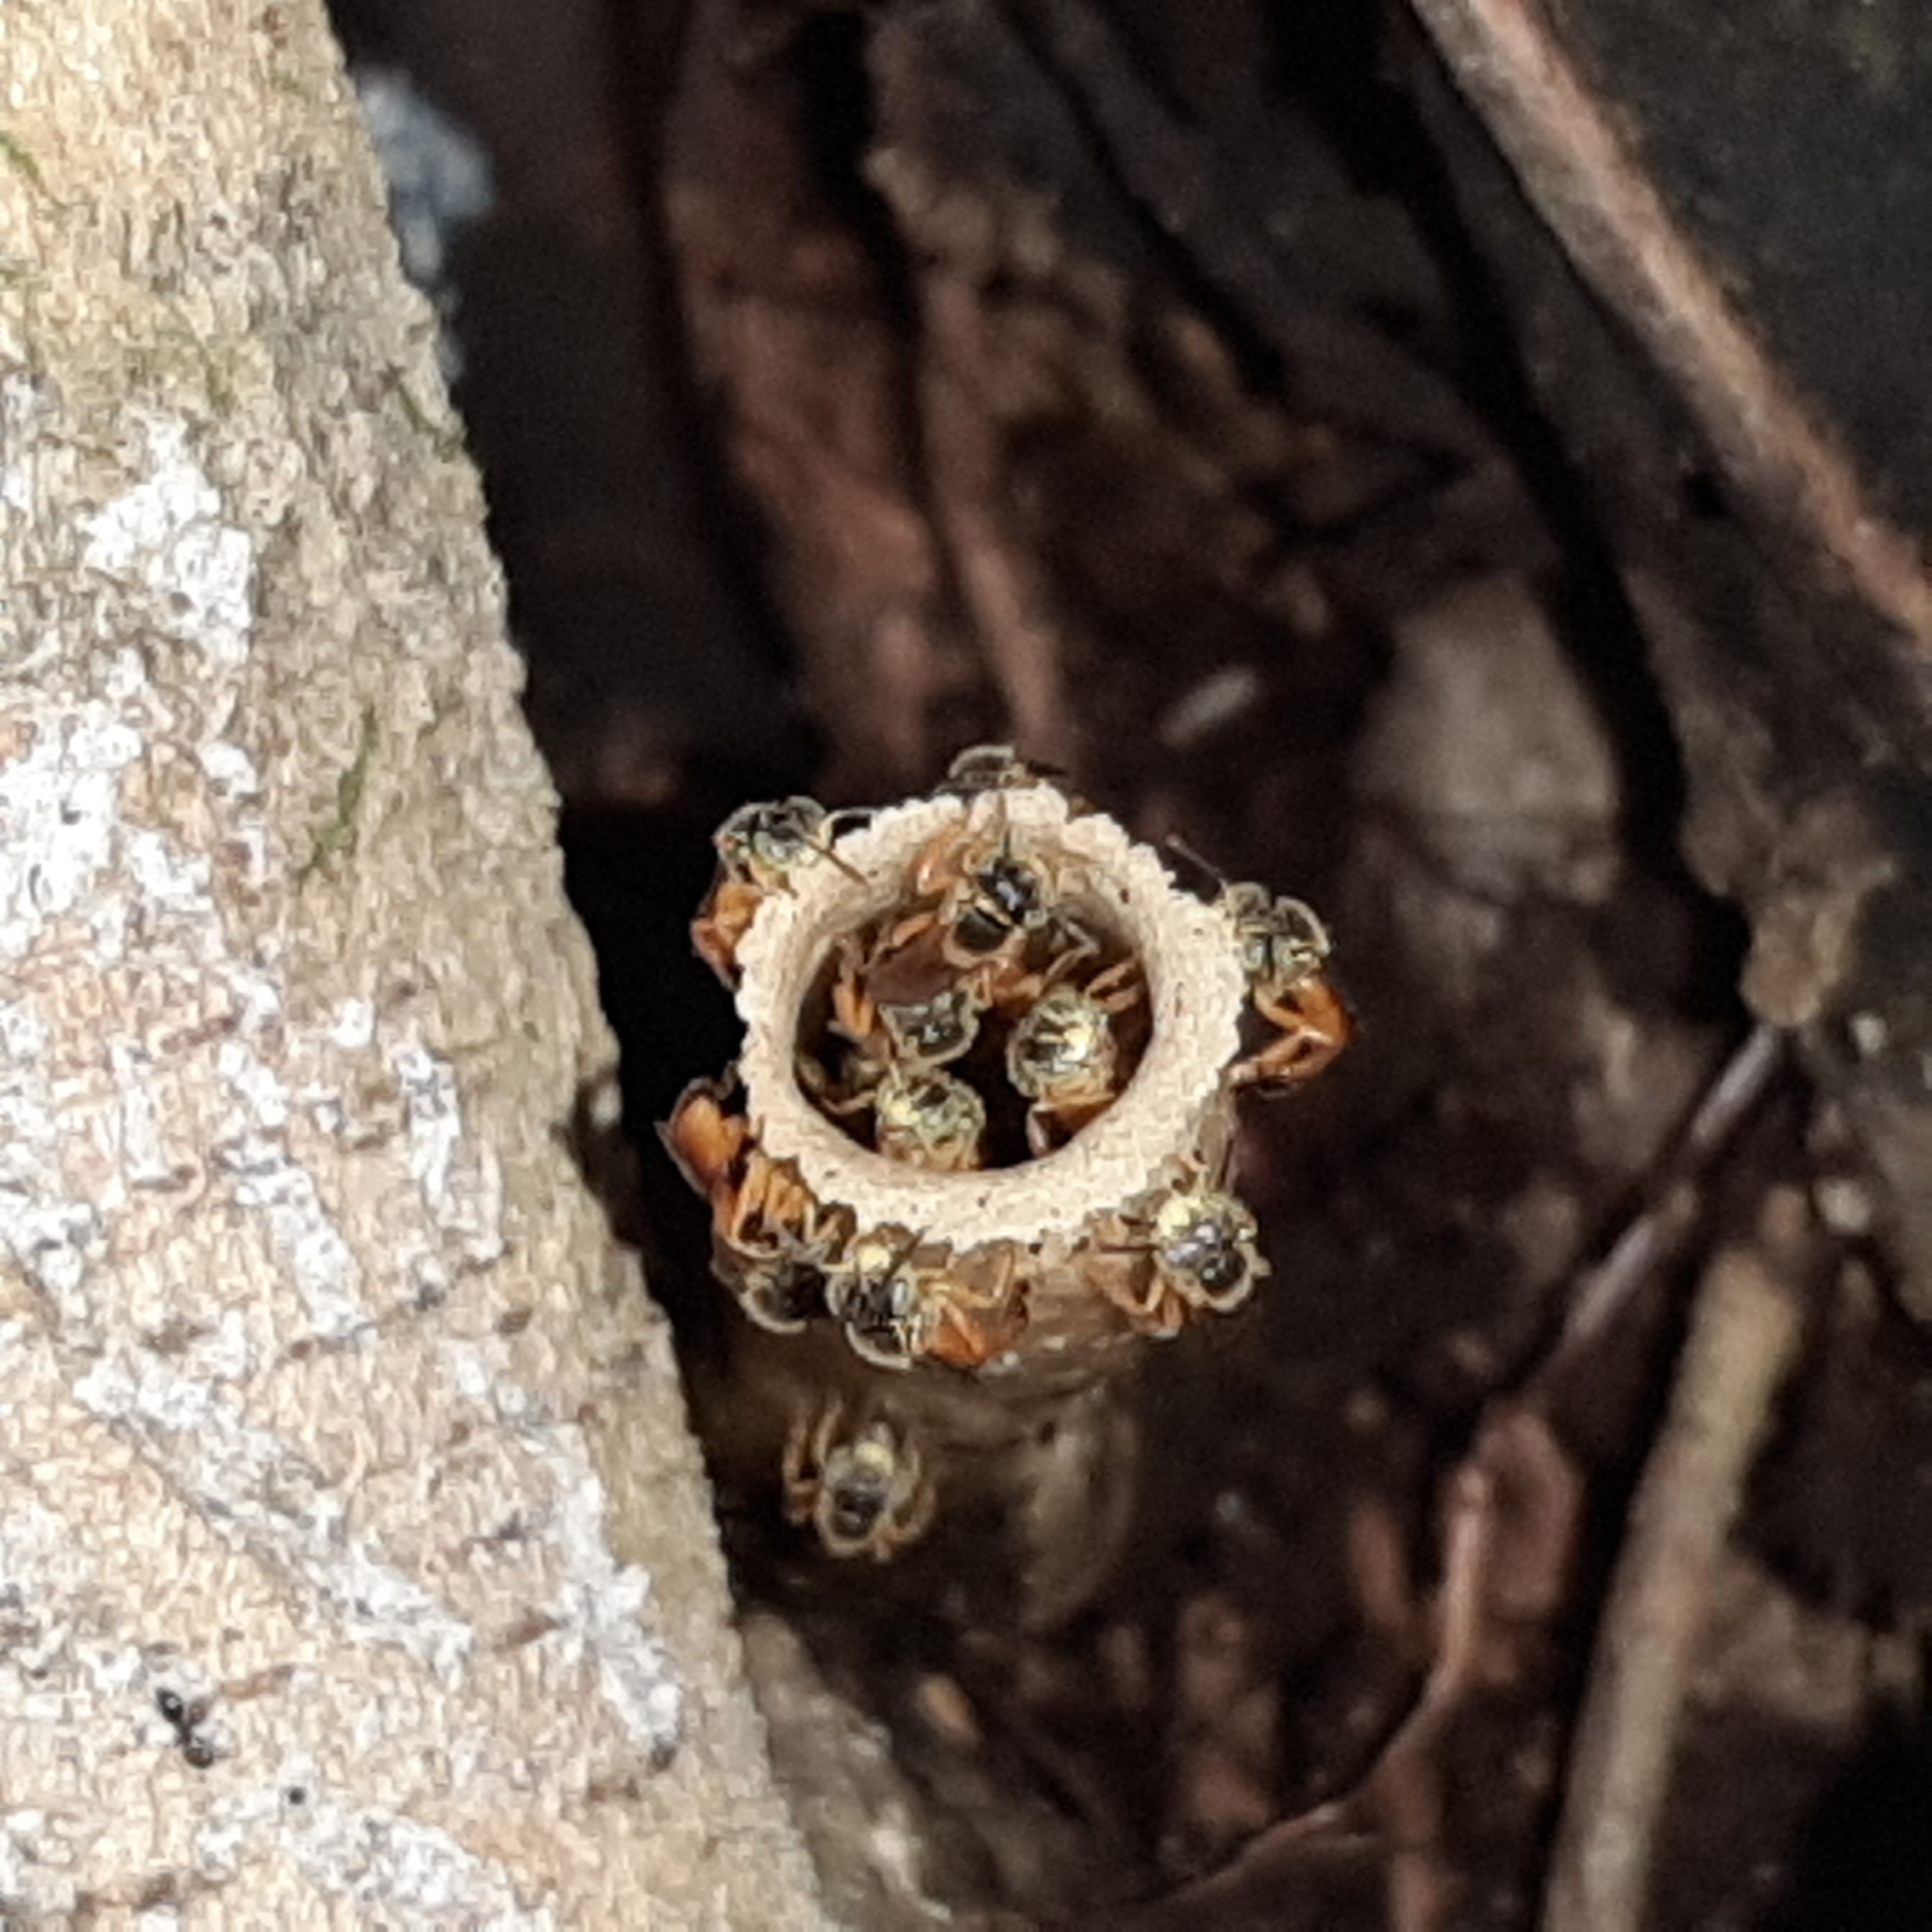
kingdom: Animalia
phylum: Arthropoda
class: Insecta
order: Hymenoptera
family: Apidae
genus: Tetragonisca
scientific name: Tetragonisca angustula
